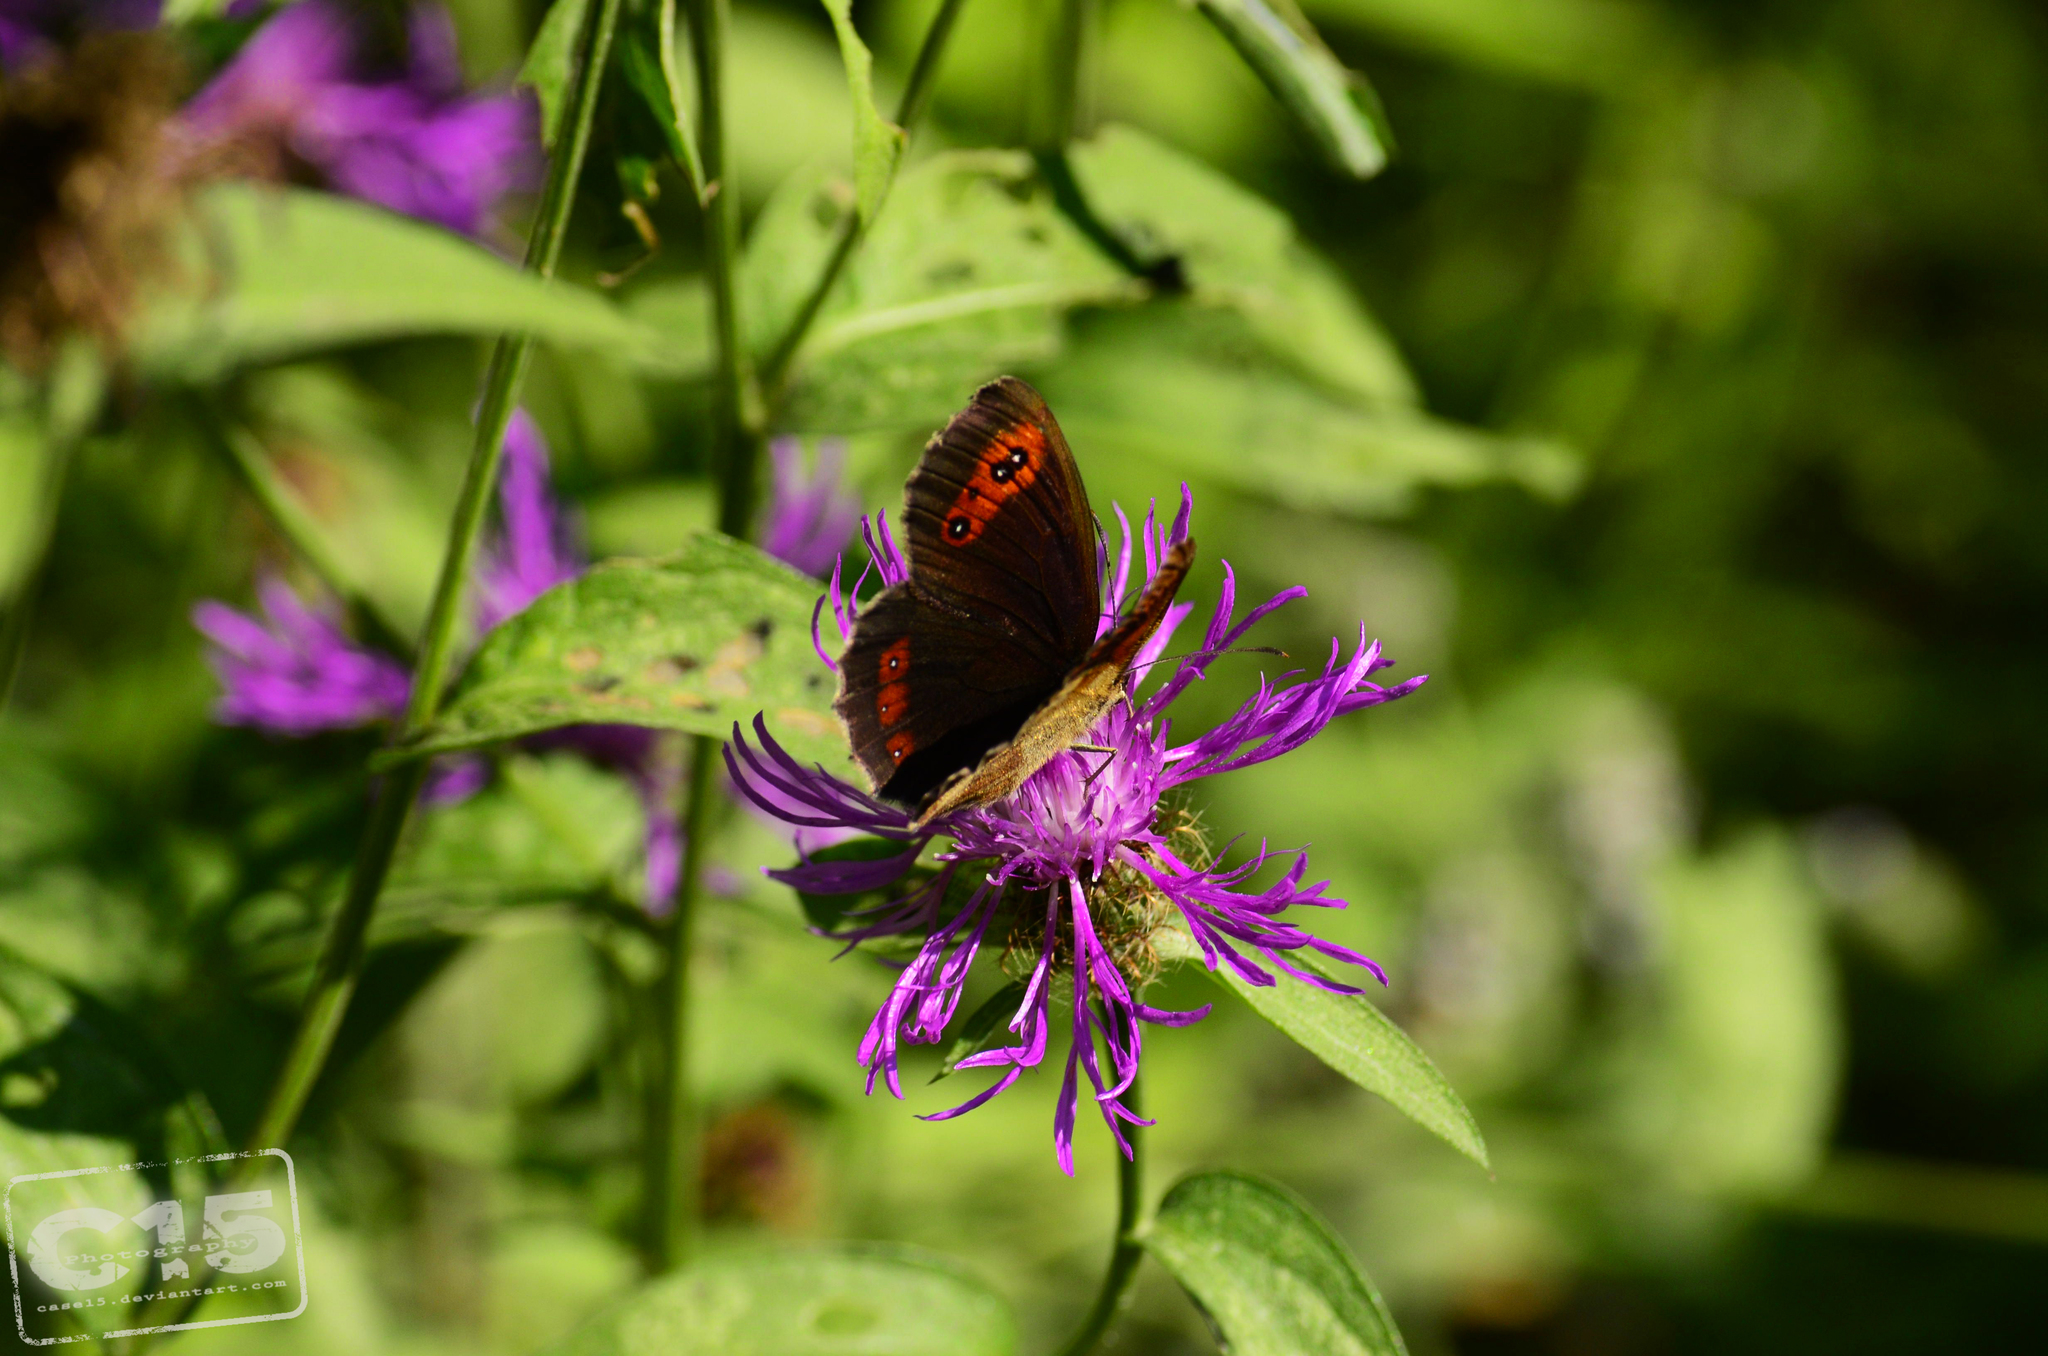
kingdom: Animalia
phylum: Arthropoda
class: Insecta
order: Lepidoptera
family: Nymphalidae
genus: Erebia
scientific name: Erebia aethiops
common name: Scotch argus
